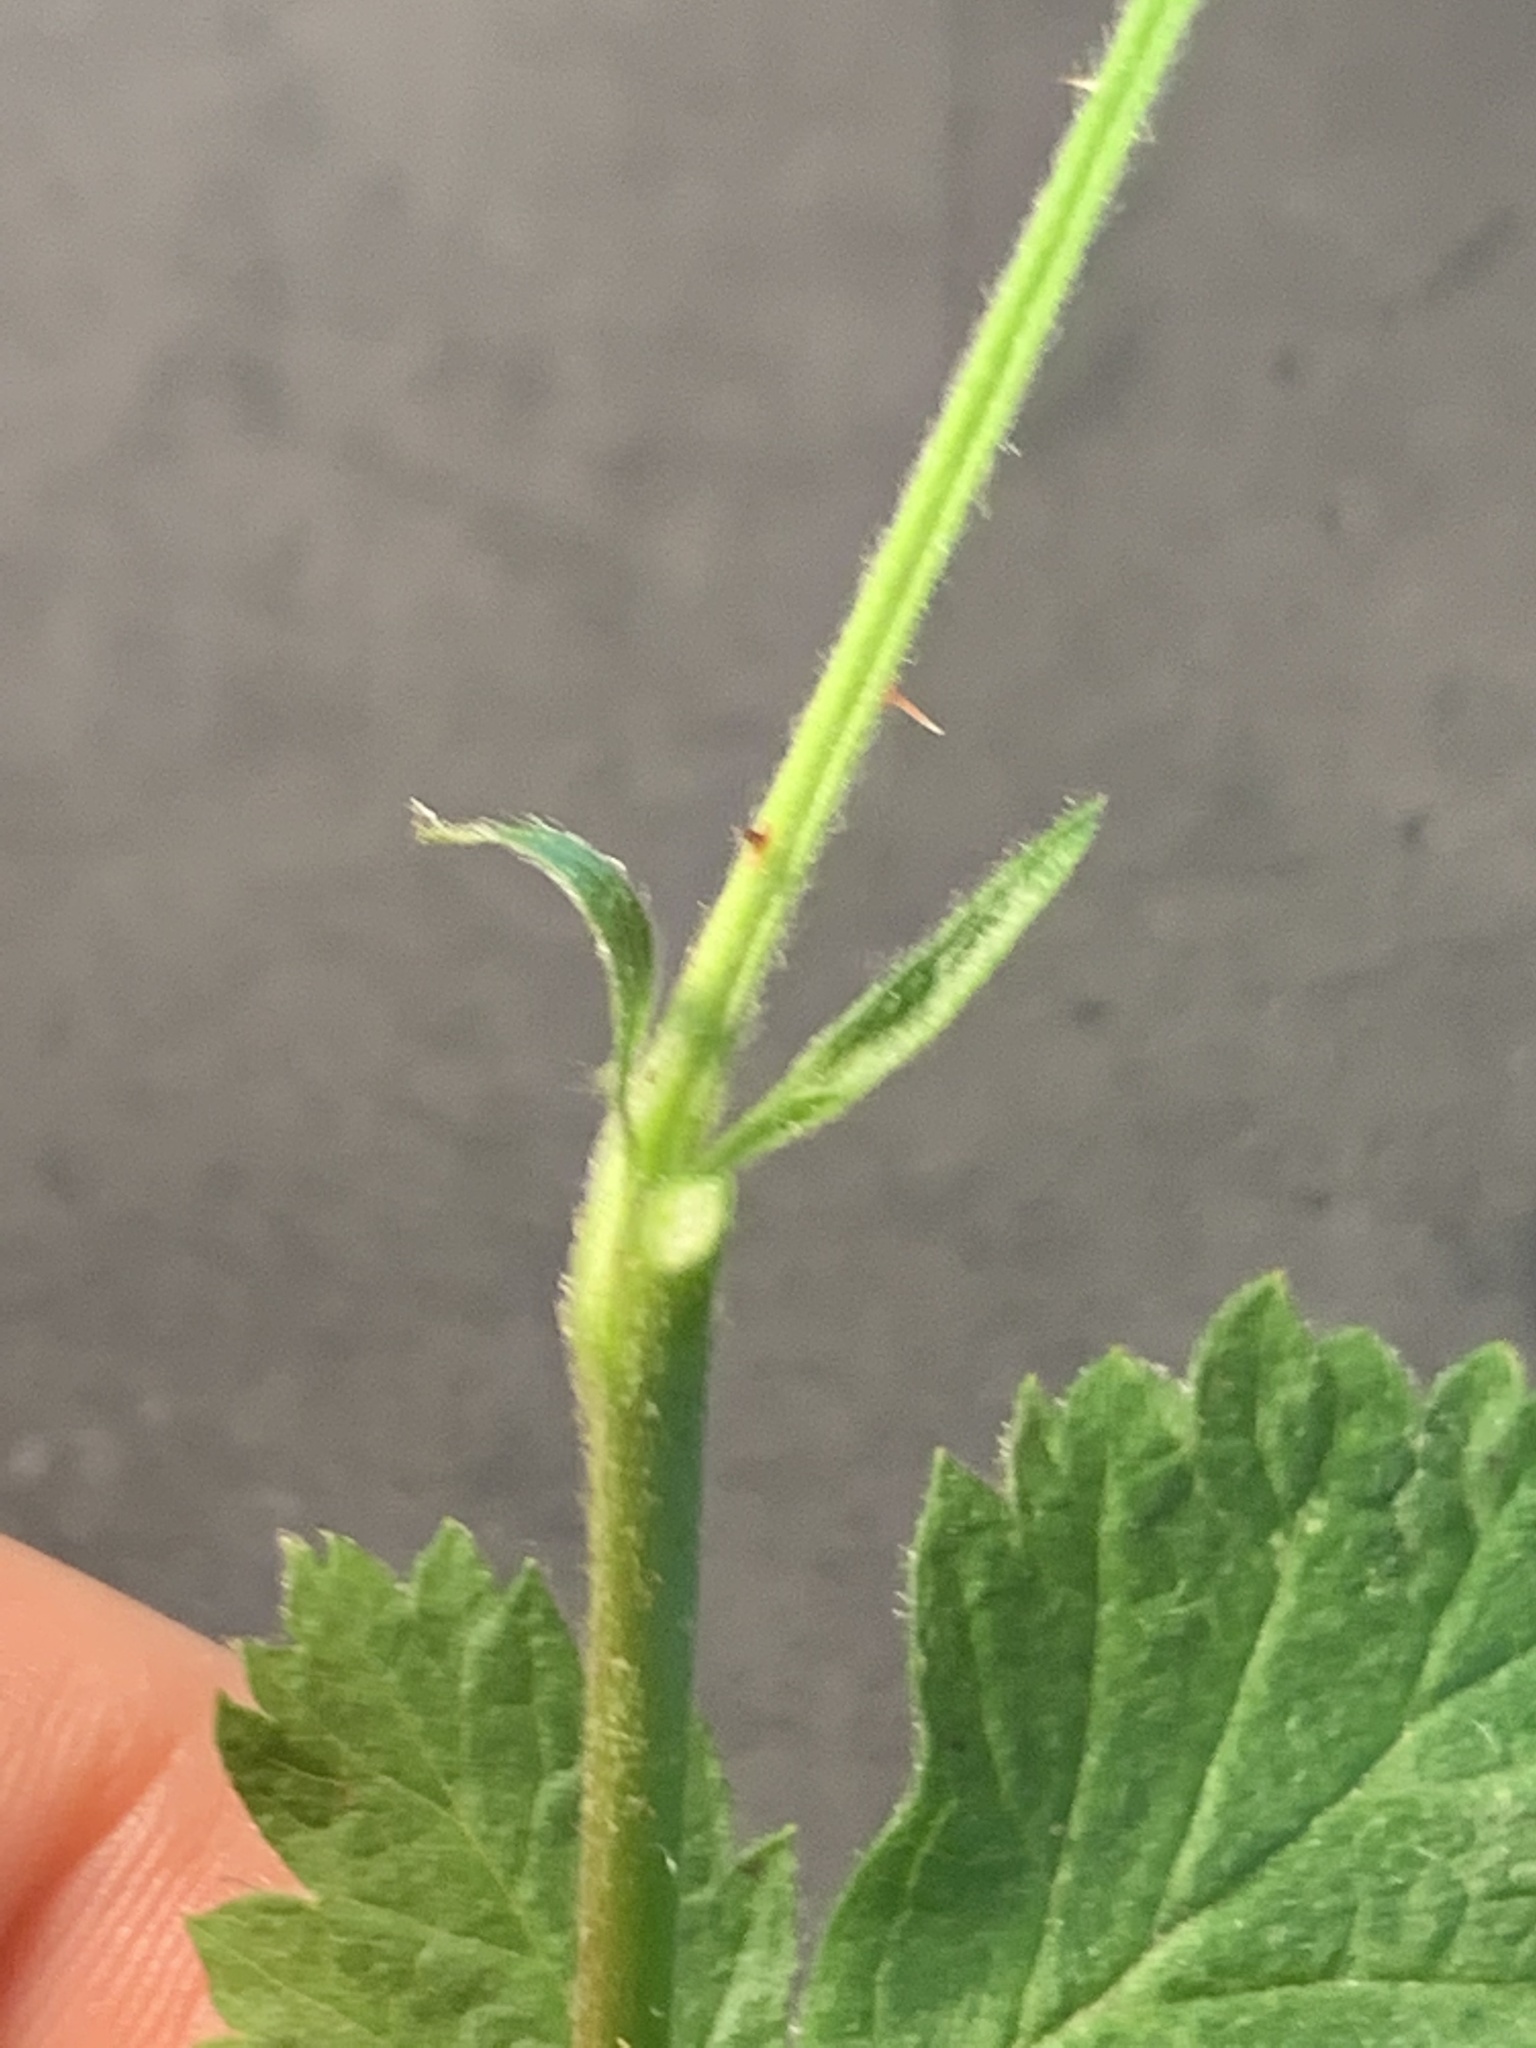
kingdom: Plantae
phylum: Tracheophyta
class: Magnoliopsida
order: Rosales
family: Rosaceae
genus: Rubus
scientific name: Rubus ursinus
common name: Pacific blackberry
